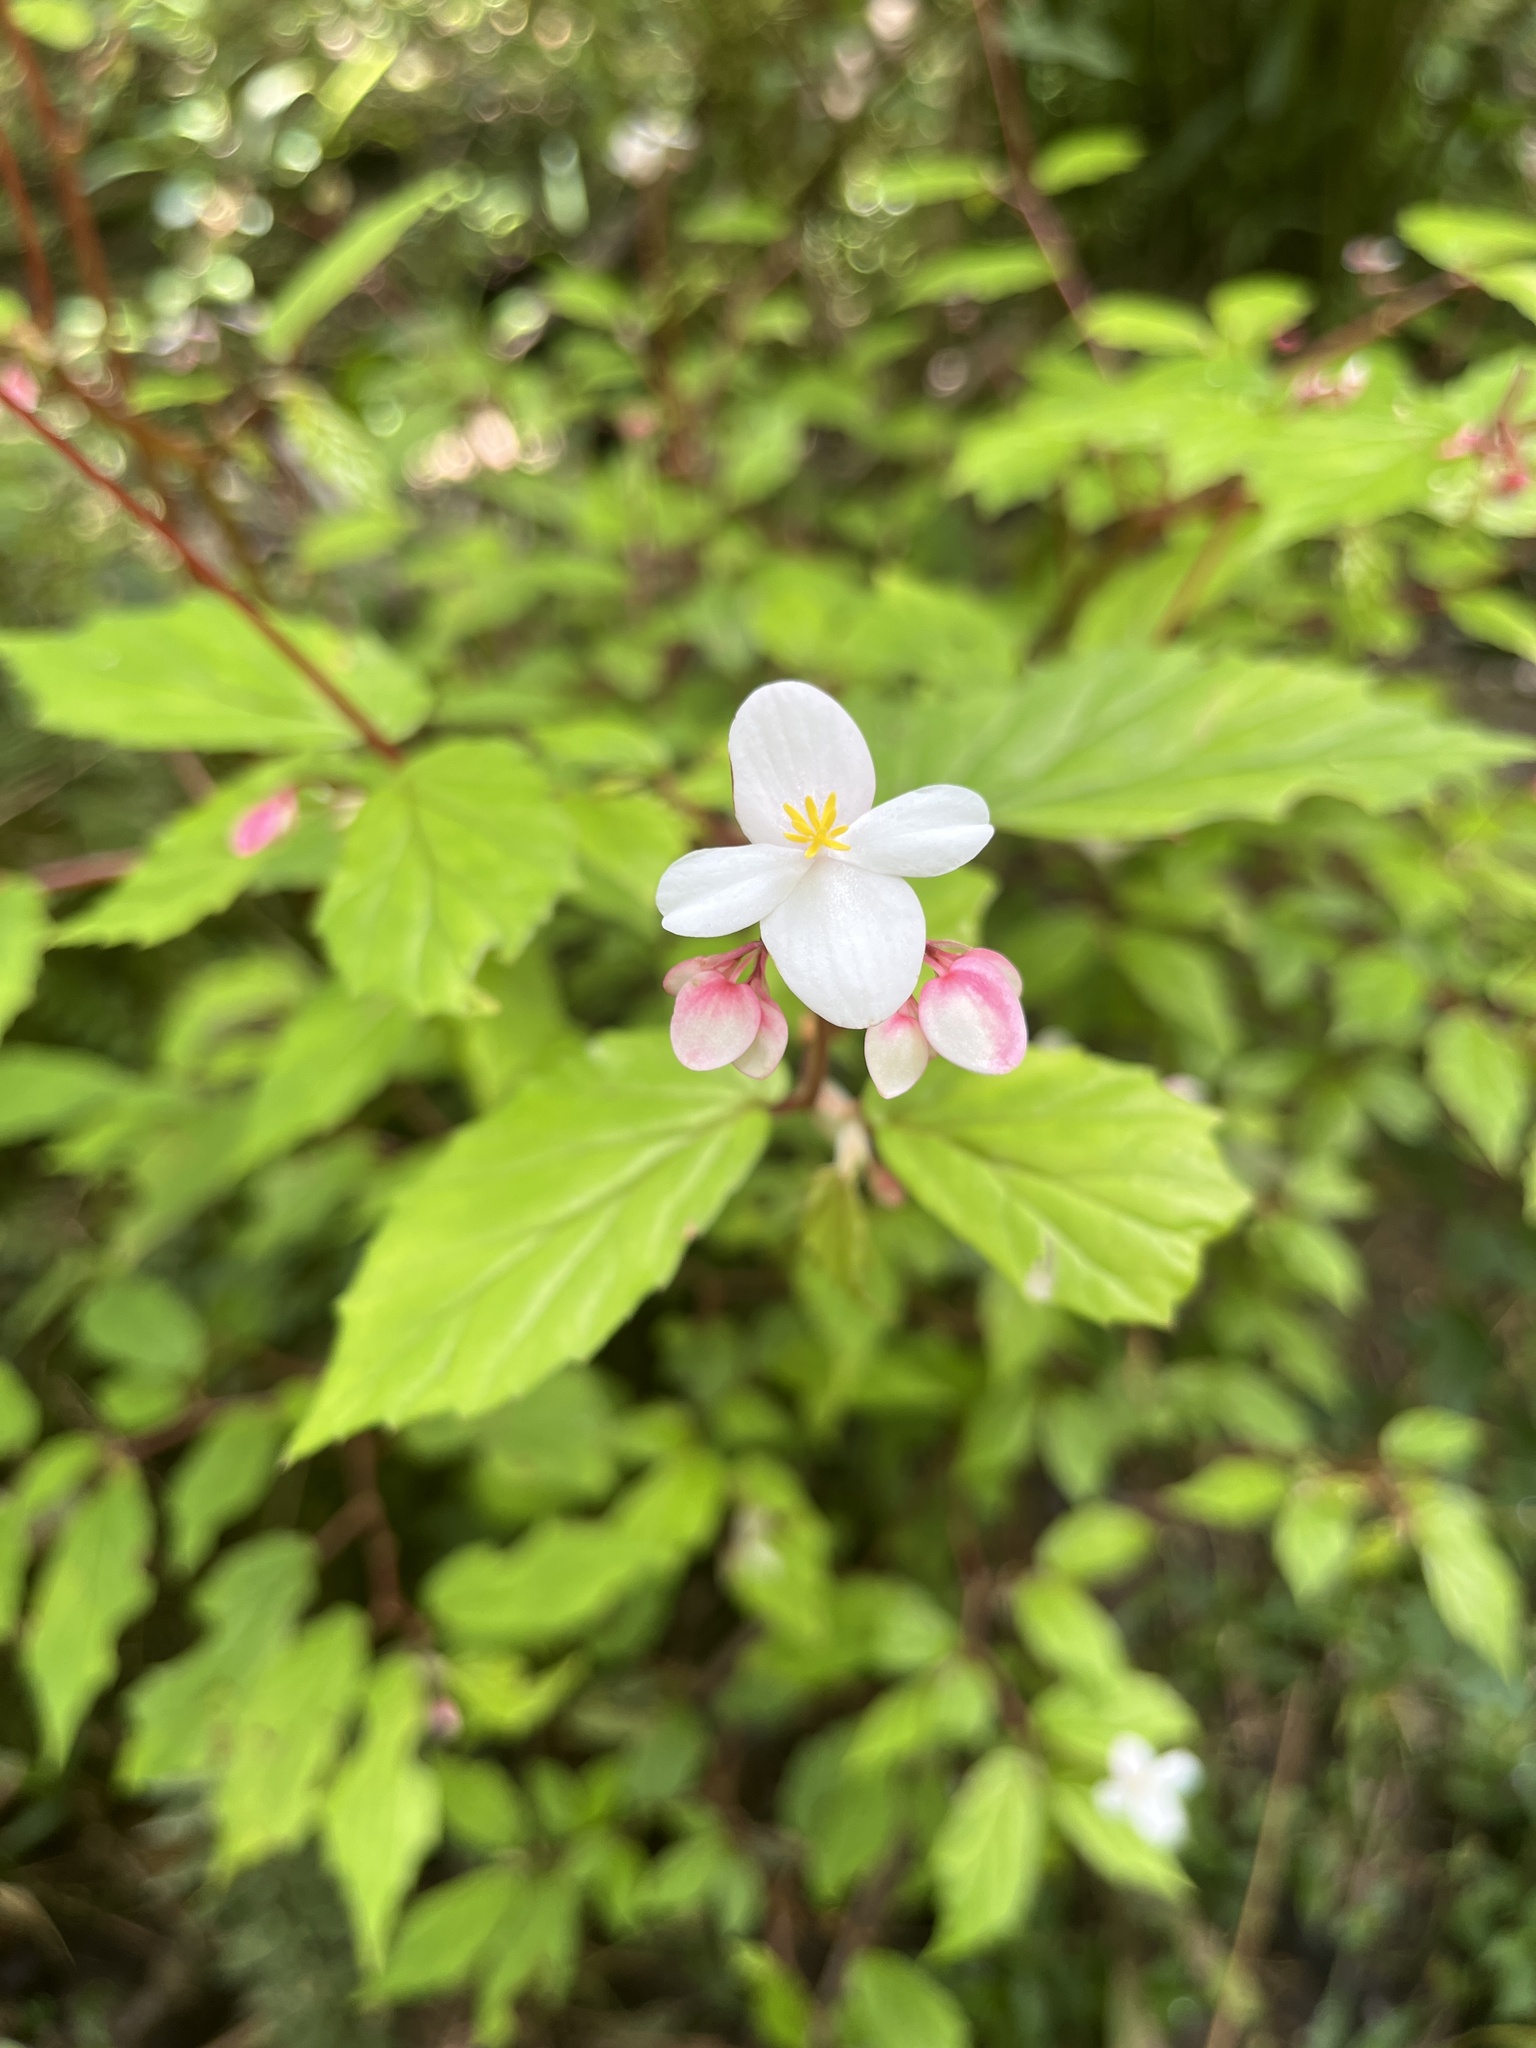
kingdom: Plantae
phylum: Tracheophyta
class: Magnoliopsida
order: Cucurbitales
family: Begoniaceae
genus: Begonia
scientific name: Begonia decandra
